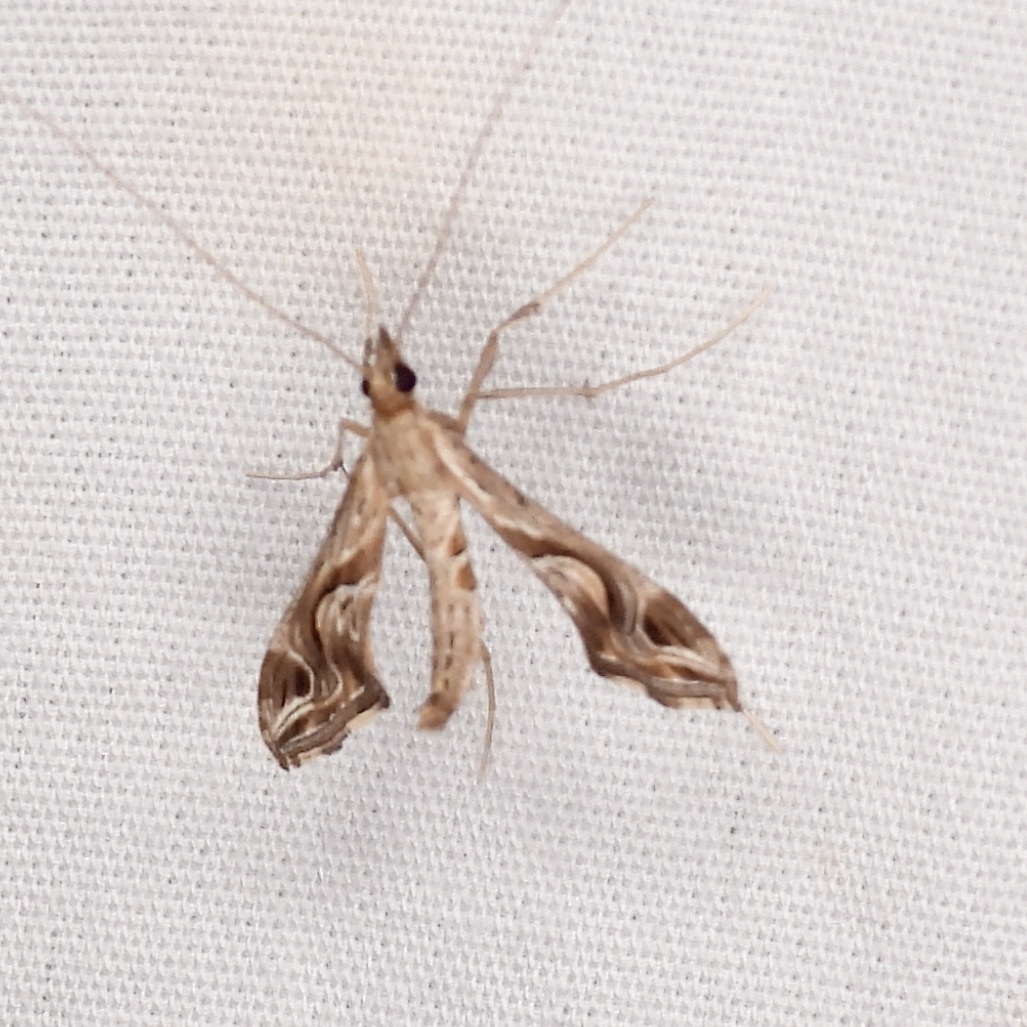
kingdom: Animalia
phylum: Arthropoda
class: Insecta
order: Lepidoptera
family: Crambidae
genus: Lineodes
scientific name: Lineodes integra
